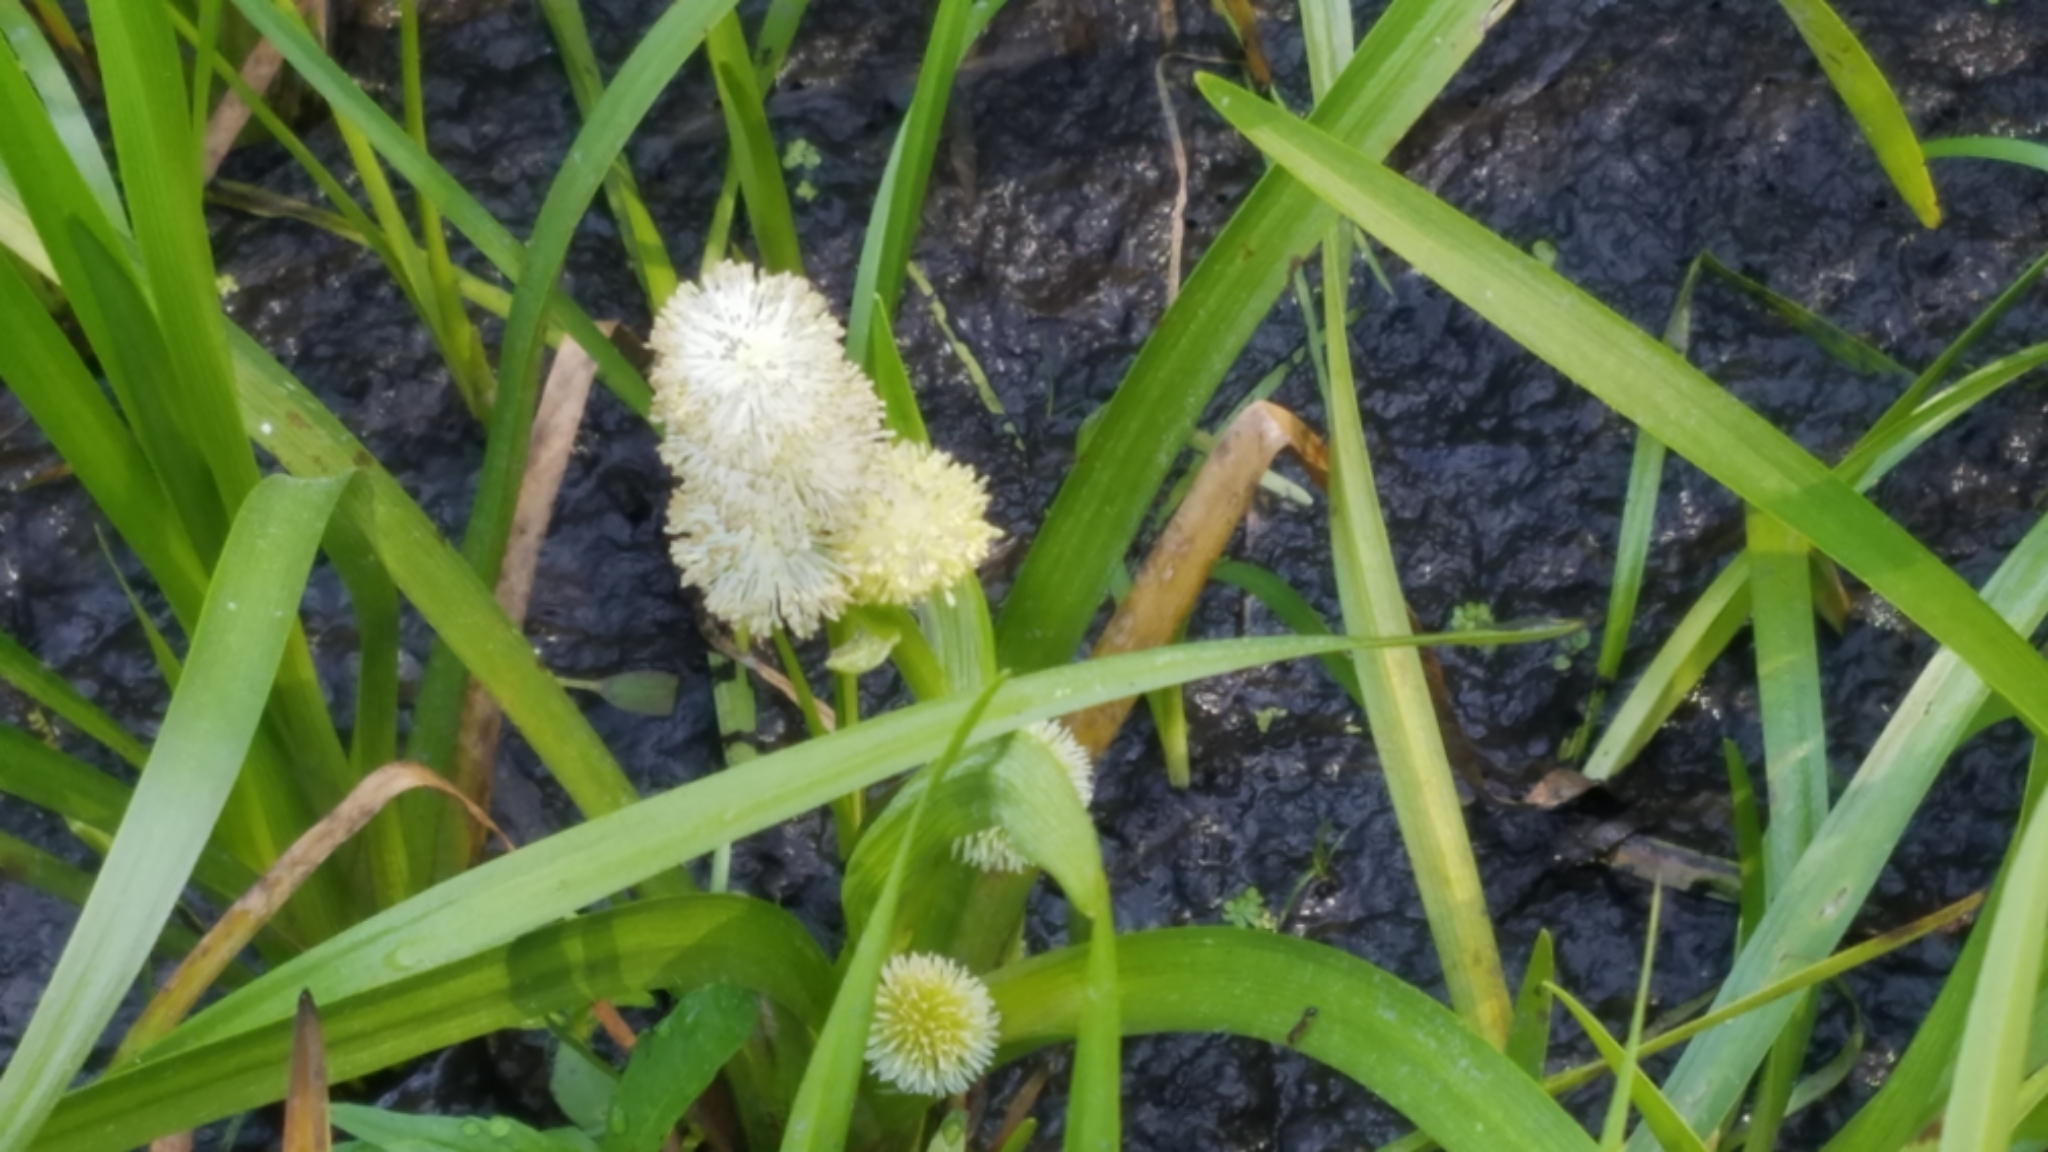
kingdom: Plantae
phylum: Tracheophyta
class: Liliopsida
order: Poales
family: Typhaceae
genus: Sparganium
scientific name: Sparganium angustifolium
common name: Floating bur-reed
